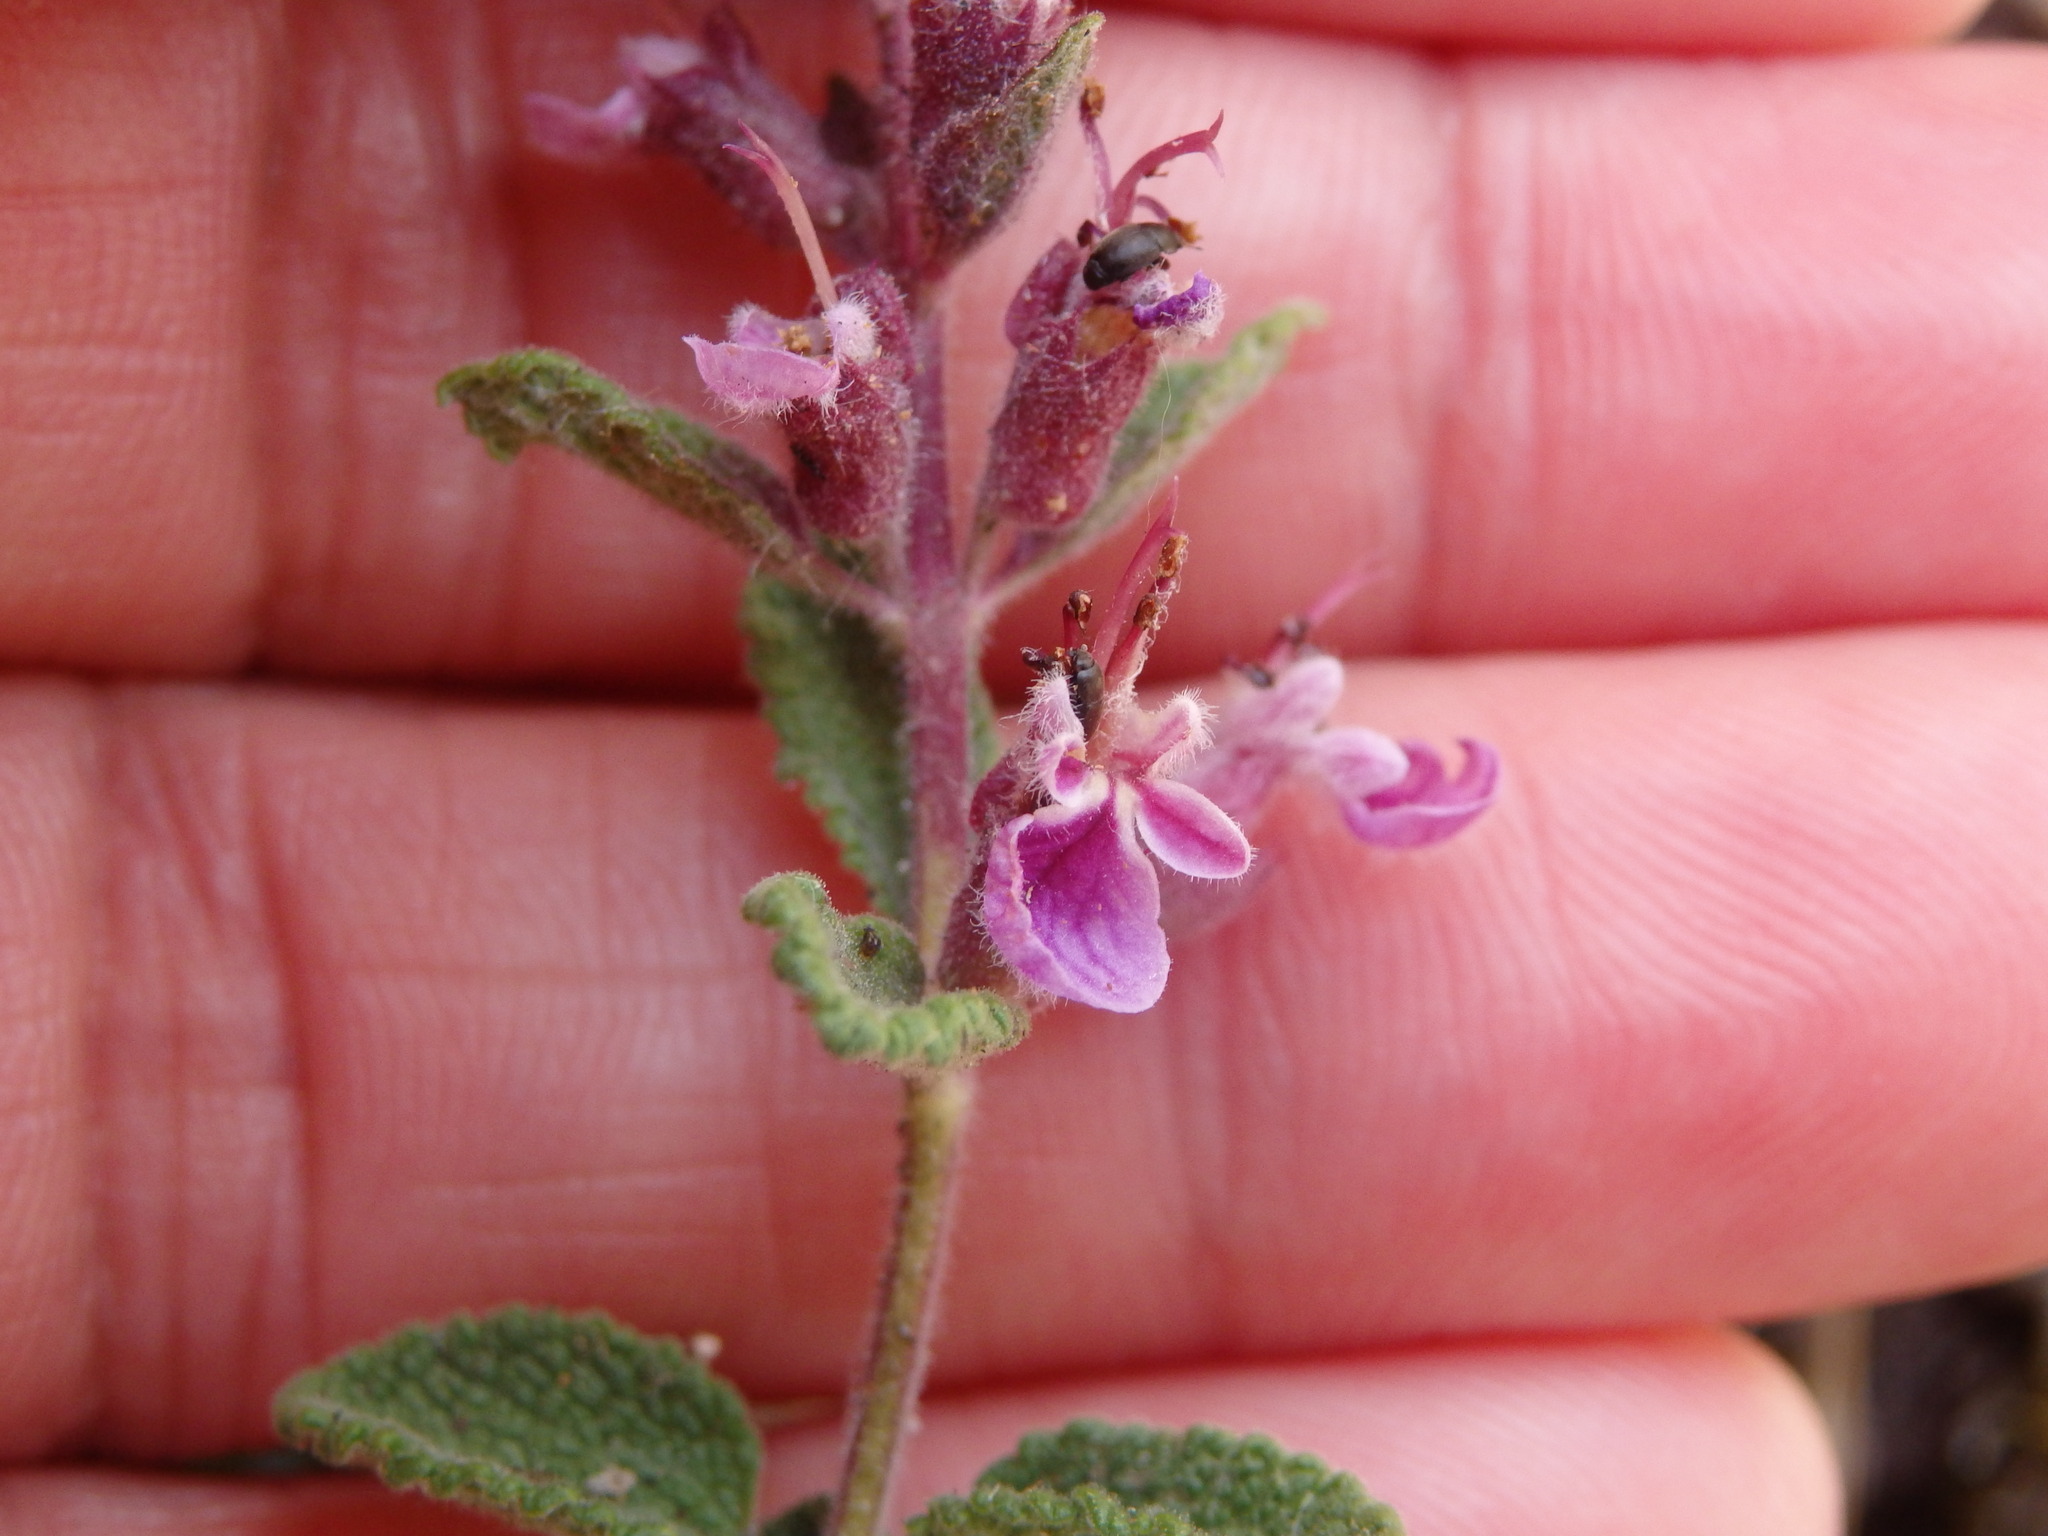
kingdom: Plantae
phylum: Tracheophyta
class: Magnoliopsida
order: Lamiales
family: Lamiaceae
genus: Teucrium
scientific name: Teucrium salviastrum
